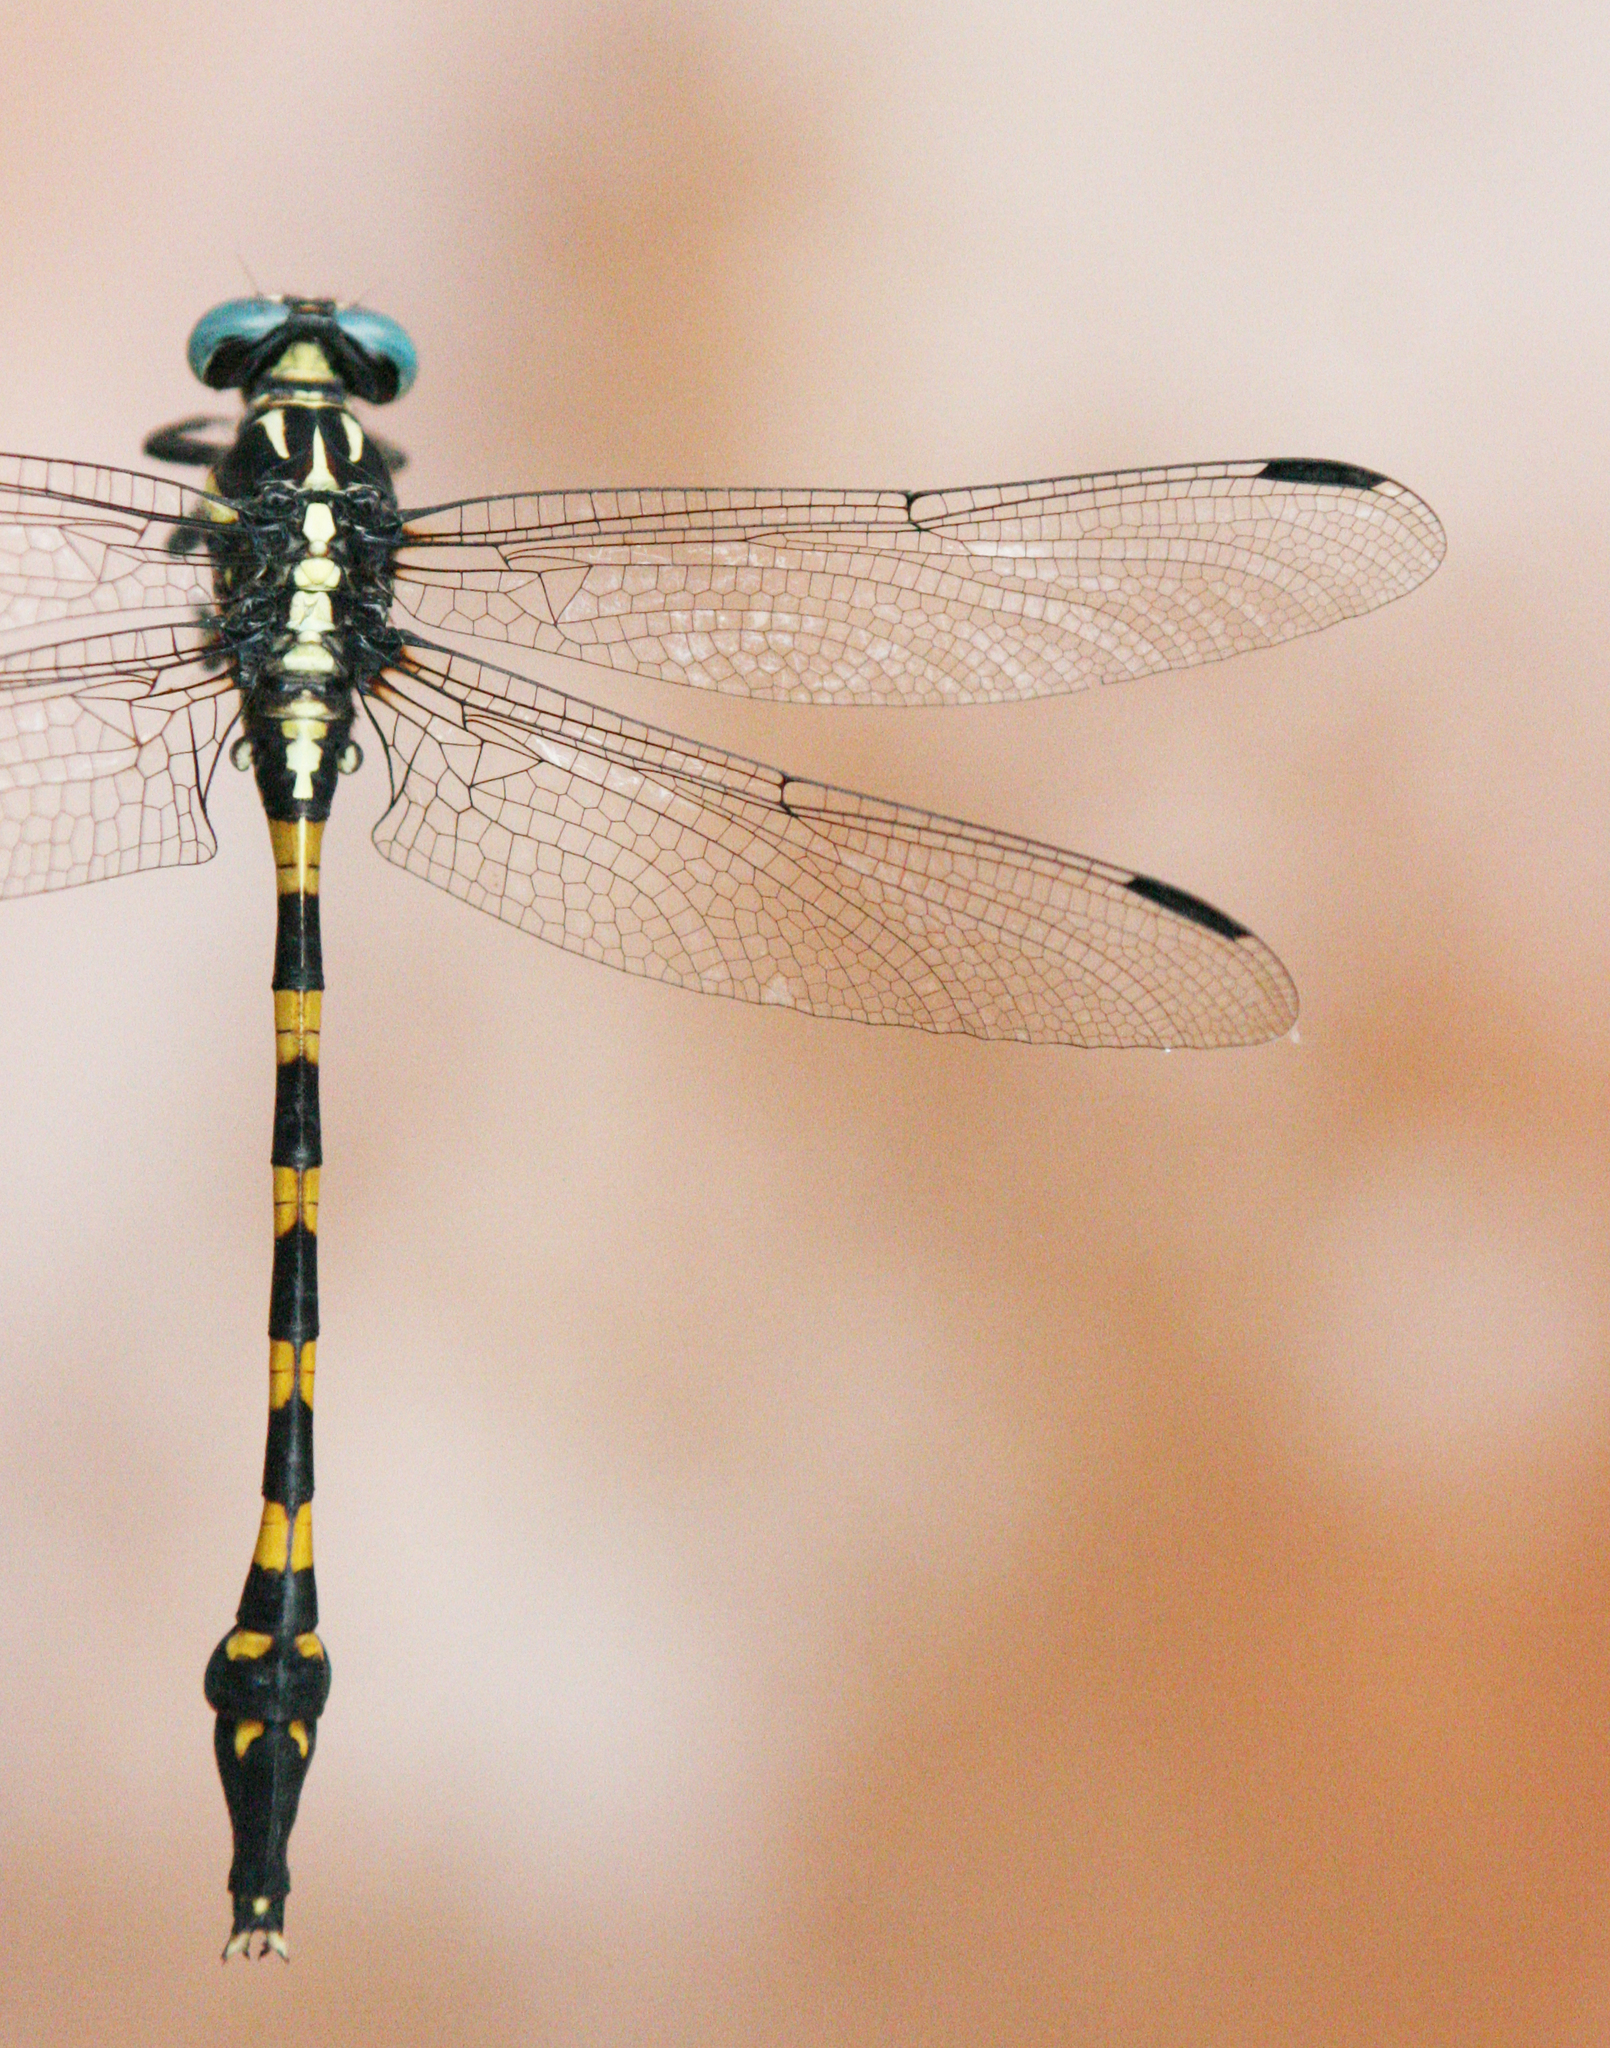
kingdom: Animalia
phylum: Arthropoda
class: Insecta
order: Odonata
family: Gomphidae
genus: Macrogomphus
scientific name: Macrogomphus albardae
